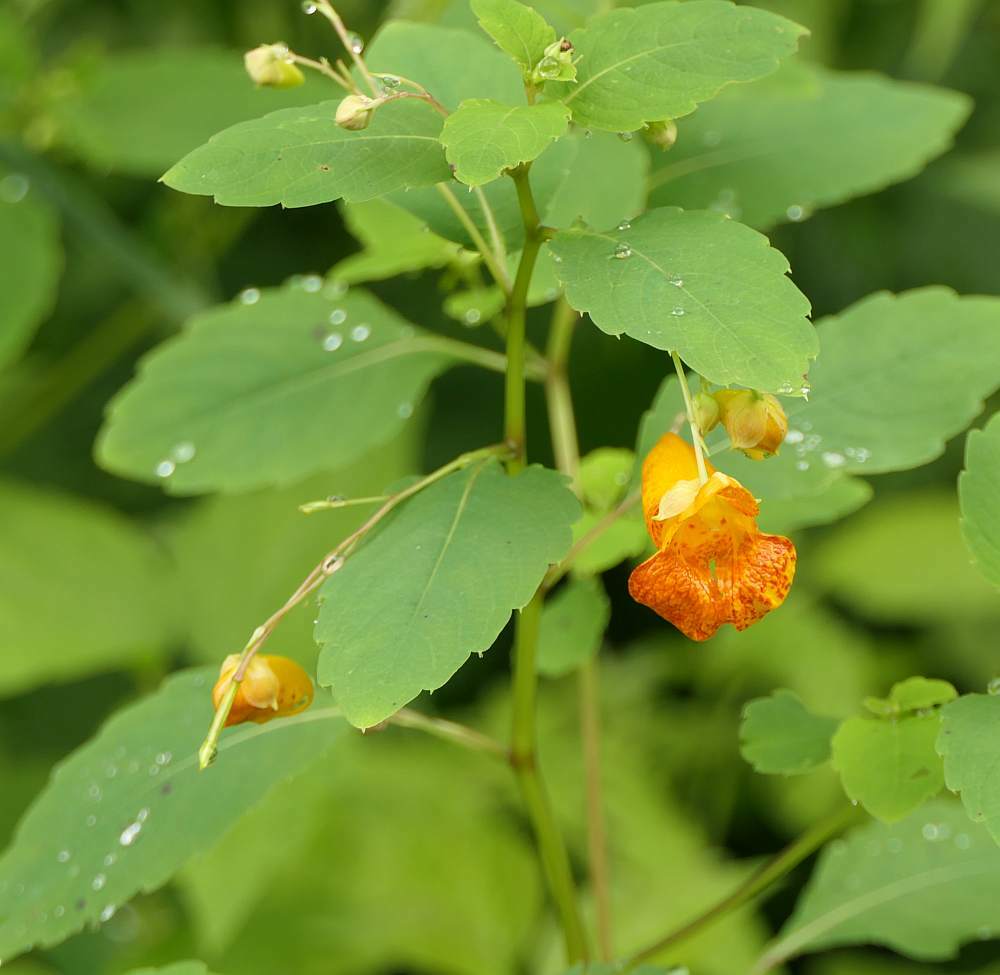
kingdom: Plantae
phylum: Tracheophyta
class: Magnoliopsida
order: Ericales
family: Balsaminaceae
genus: Impatiens
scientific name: Impatiens capensis
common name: Orange balsam
